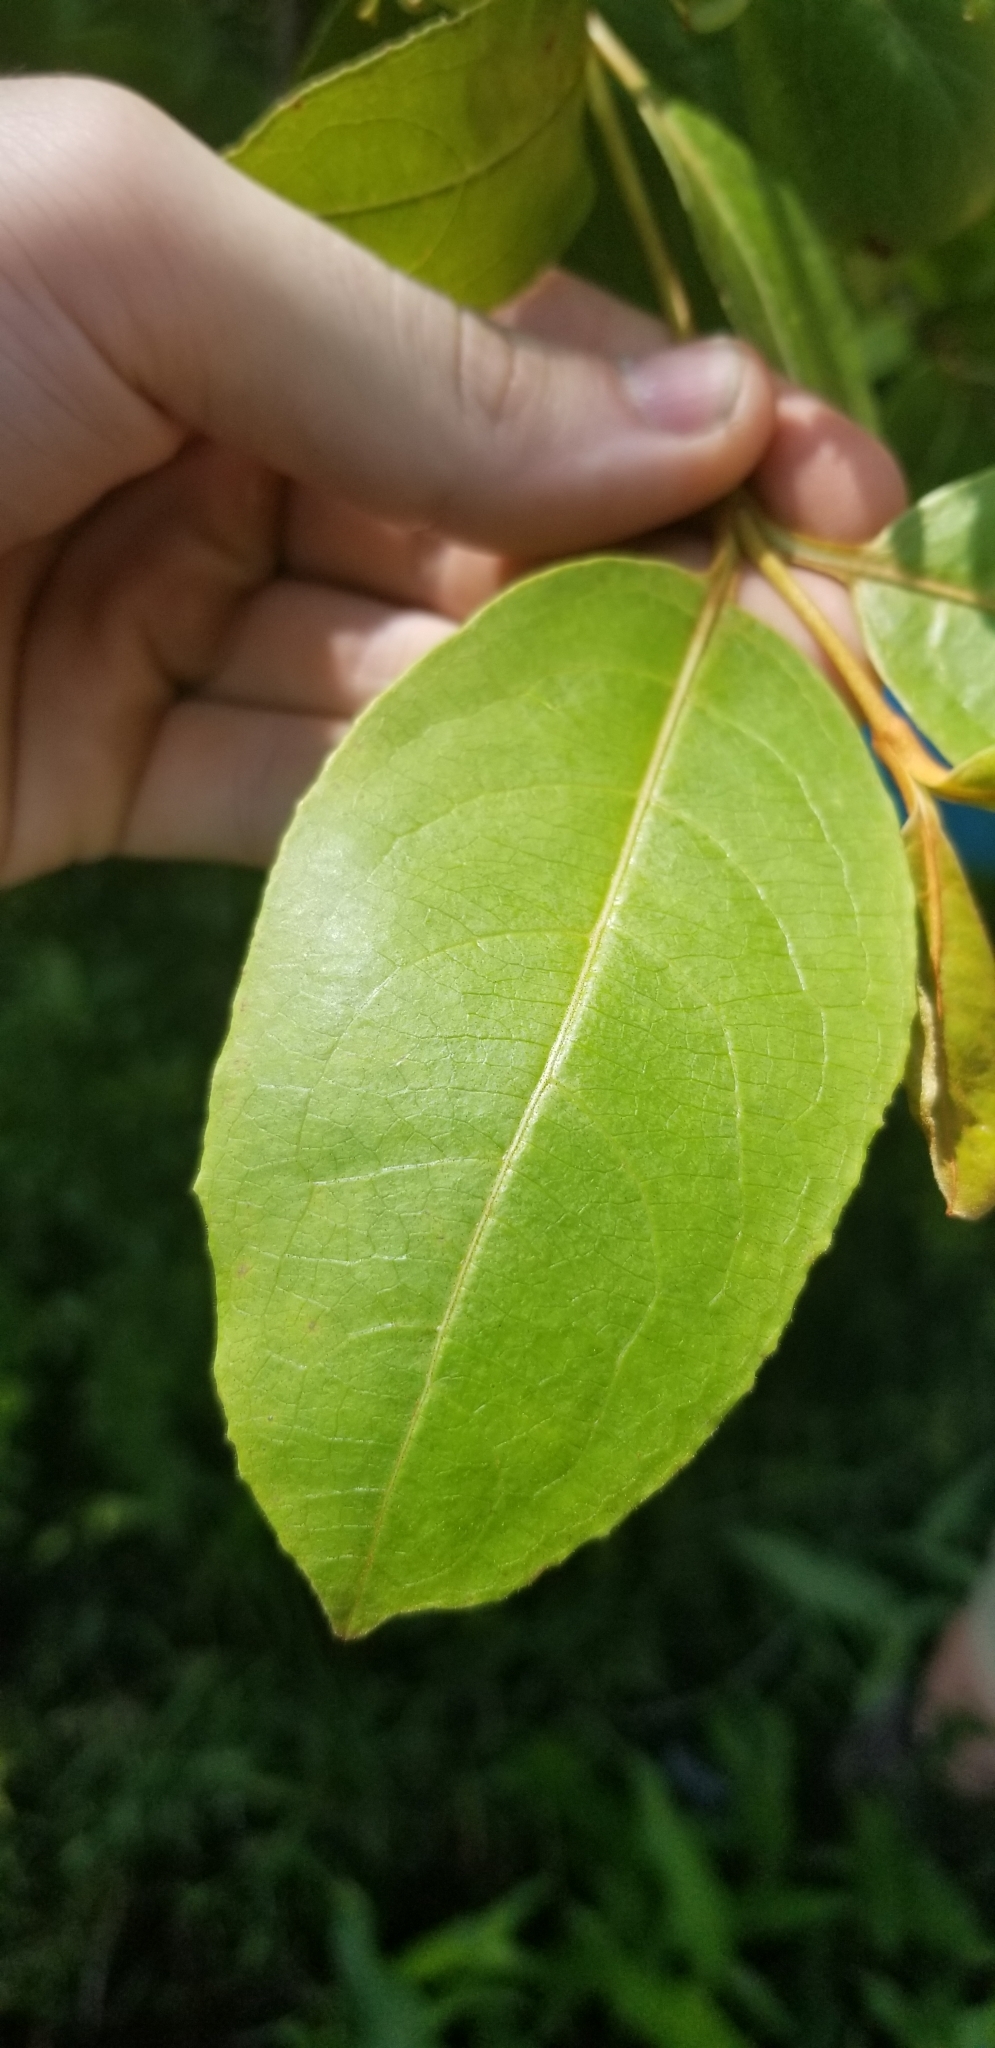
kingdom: Plantae
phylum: Tracheophyta
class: Magnoliopsida
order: Dipsacales
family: Viburnaceae
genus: Viburnum
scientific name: Viburnum nudum
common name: Possum haw
